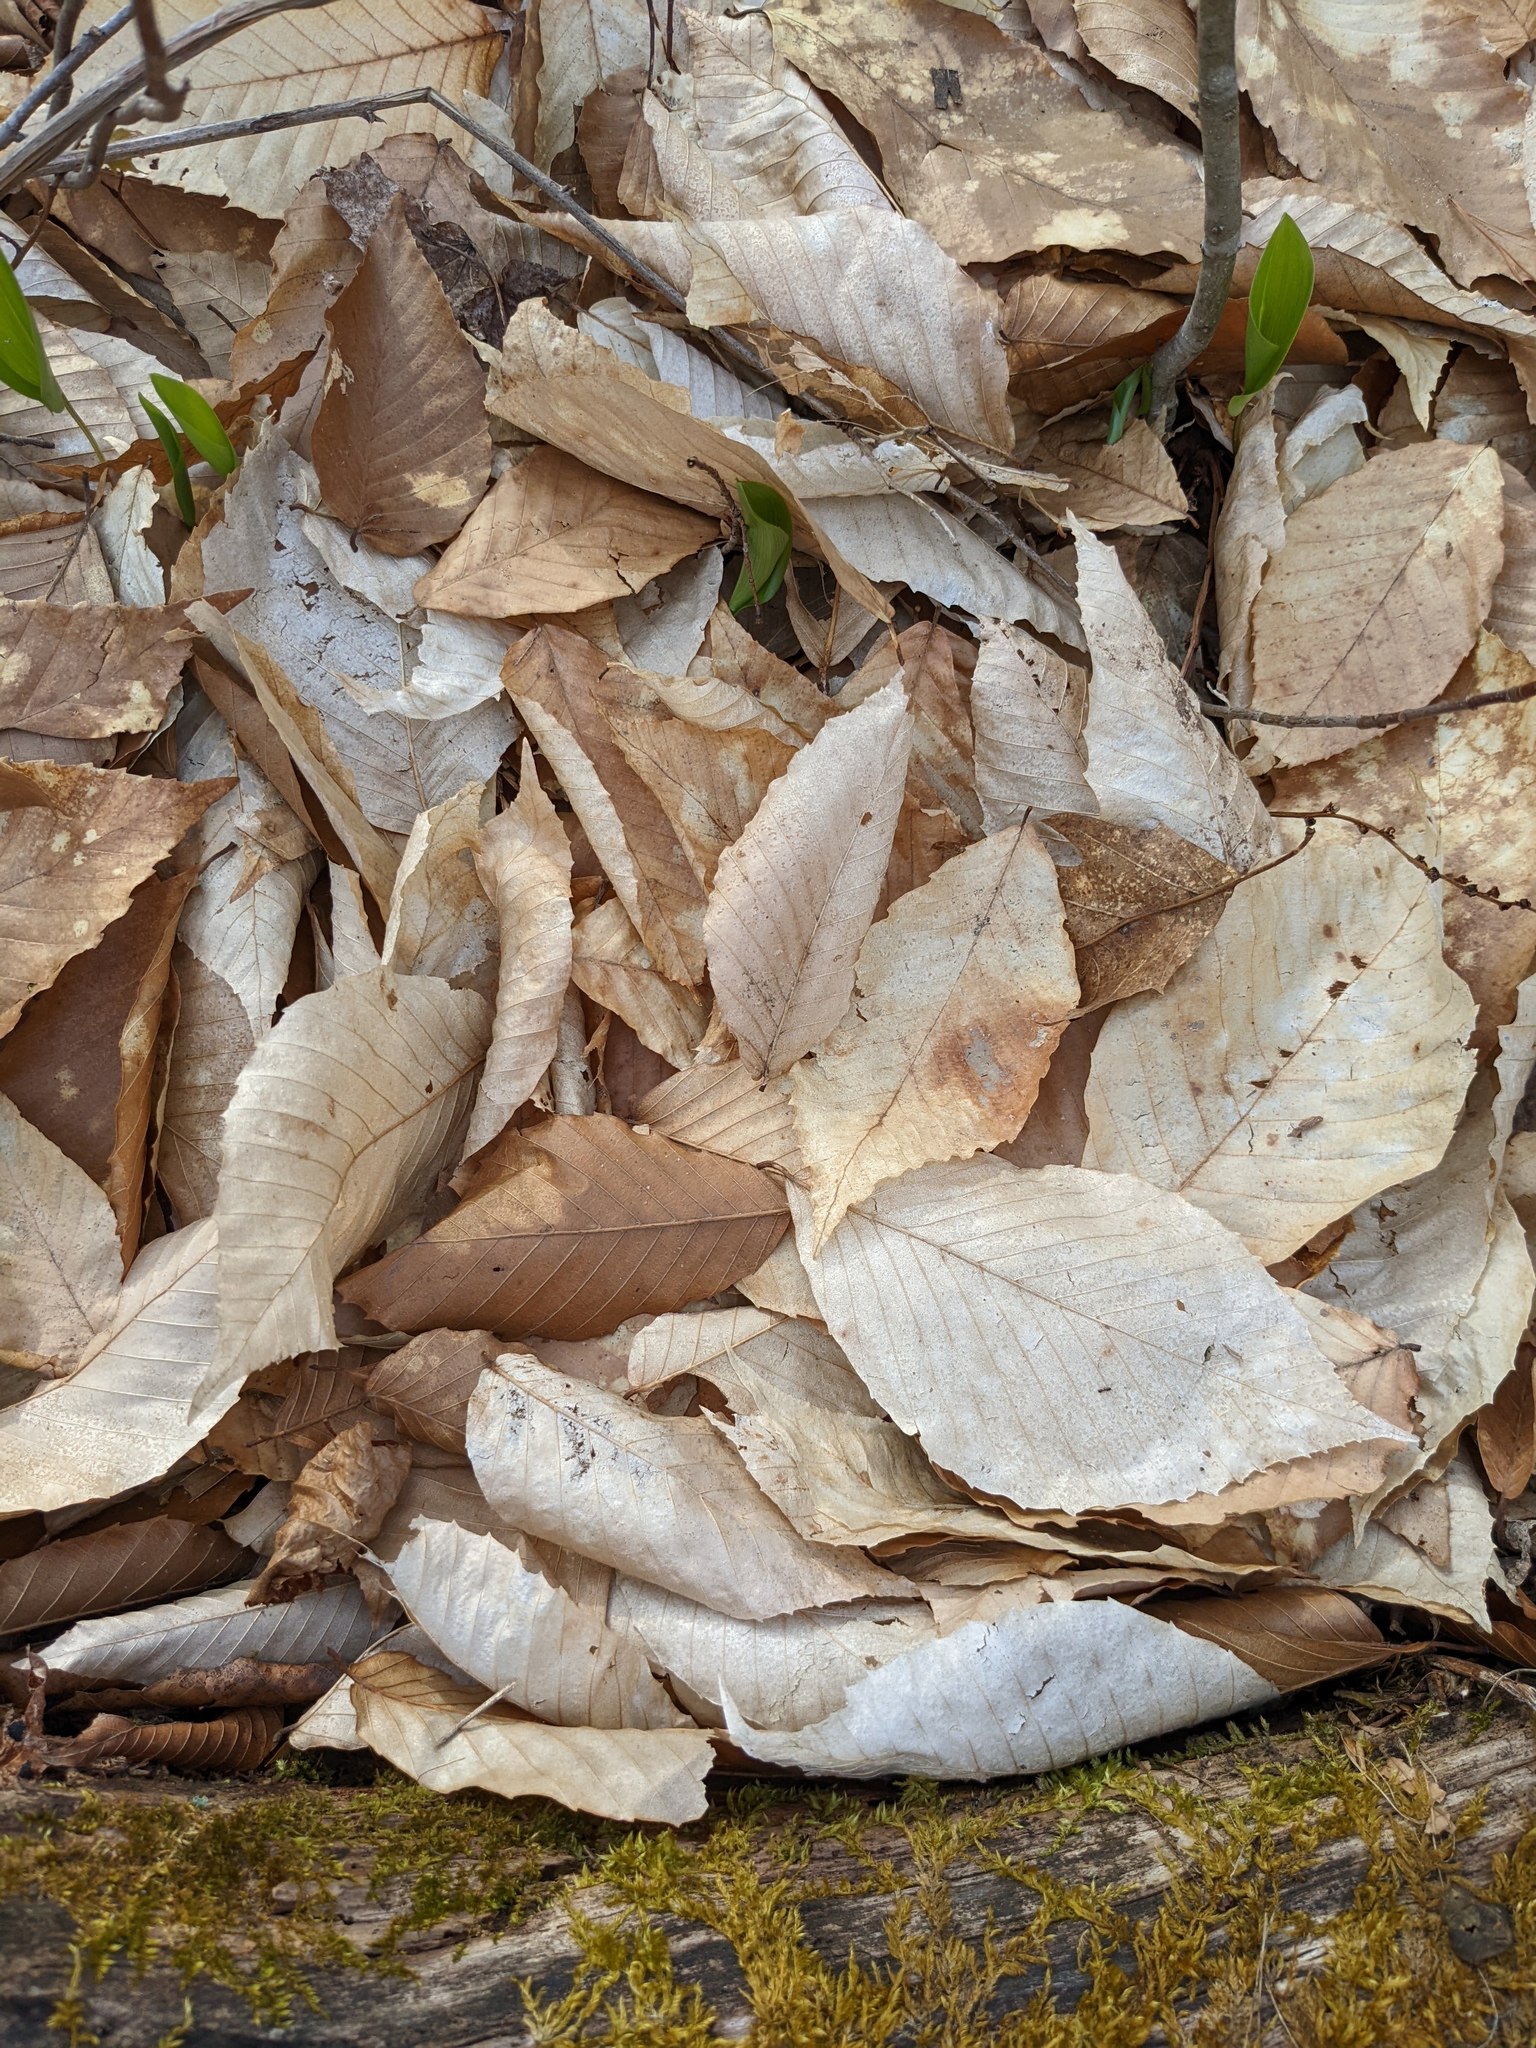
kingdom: Plantae
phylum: Tracheophyta
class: Magnoliopsida
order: Fagales
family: Fagaceae
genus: Fagus
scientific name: Fagus grandifolia
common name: American beech
